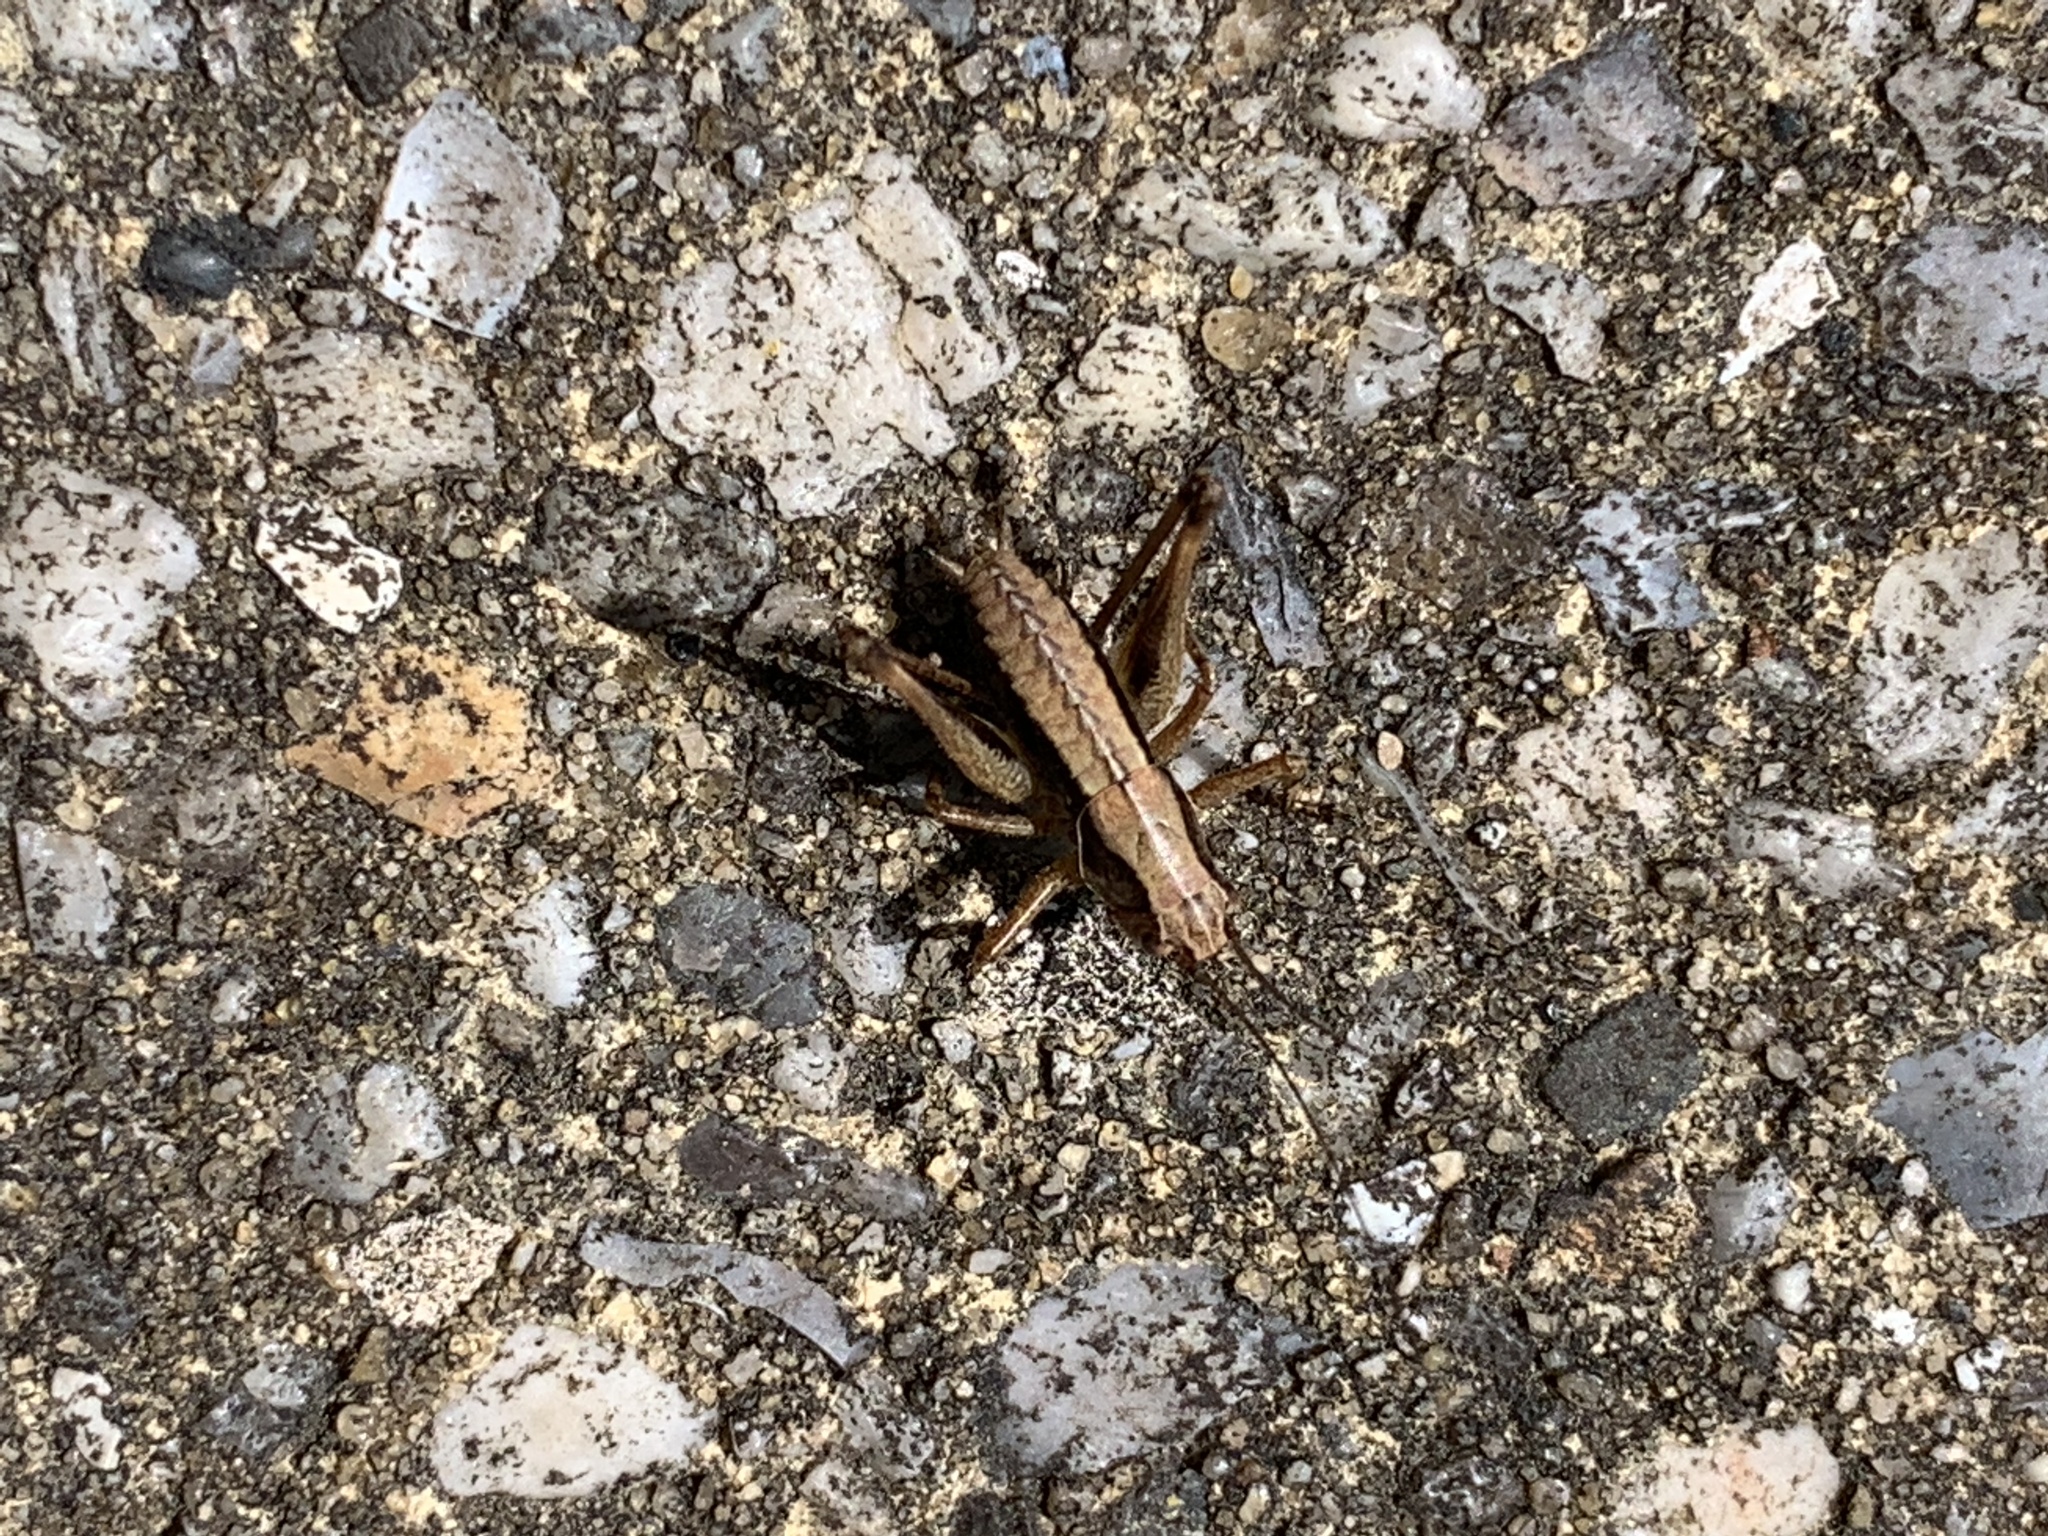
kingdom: Animalia
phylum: Arthropoda
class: Insecta
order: Orthoptera
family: Tettigoniidae
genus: Pholidoptera
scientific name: Pholidoptera griseoaptera
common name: Dark bush-cricket
